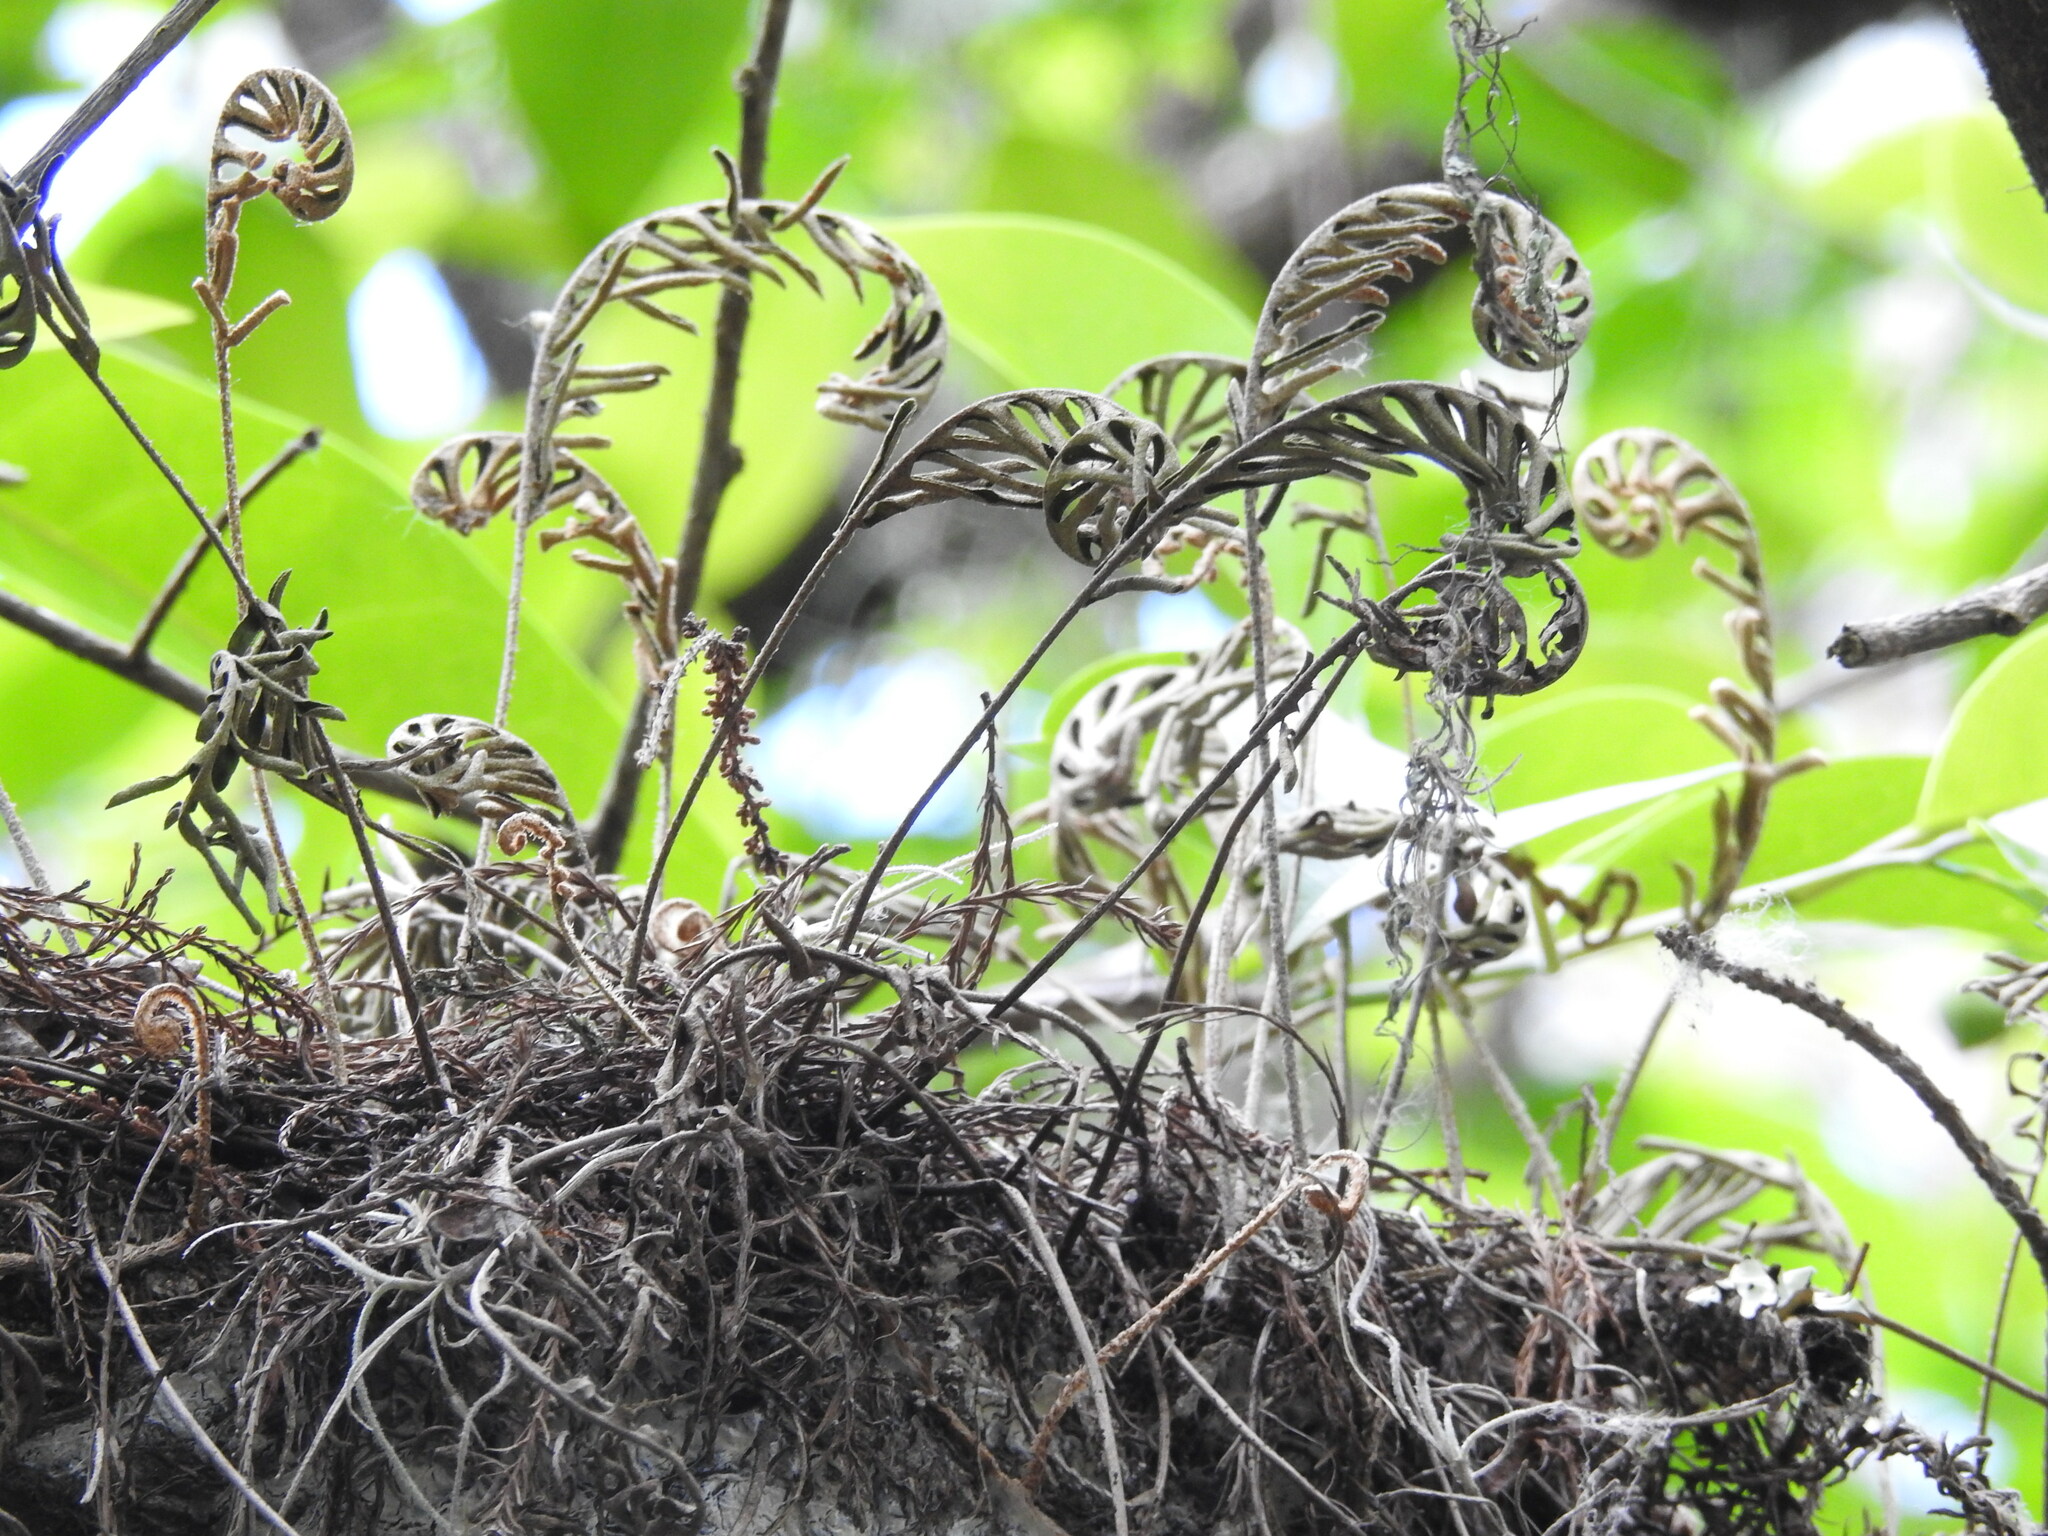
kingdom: Plantae
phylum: Tracheophyta
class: Polypodiopsida
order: Polypodiales
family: Polypodiaceae
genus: Pleopeltis
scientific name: Pleopeltis michauxiana
